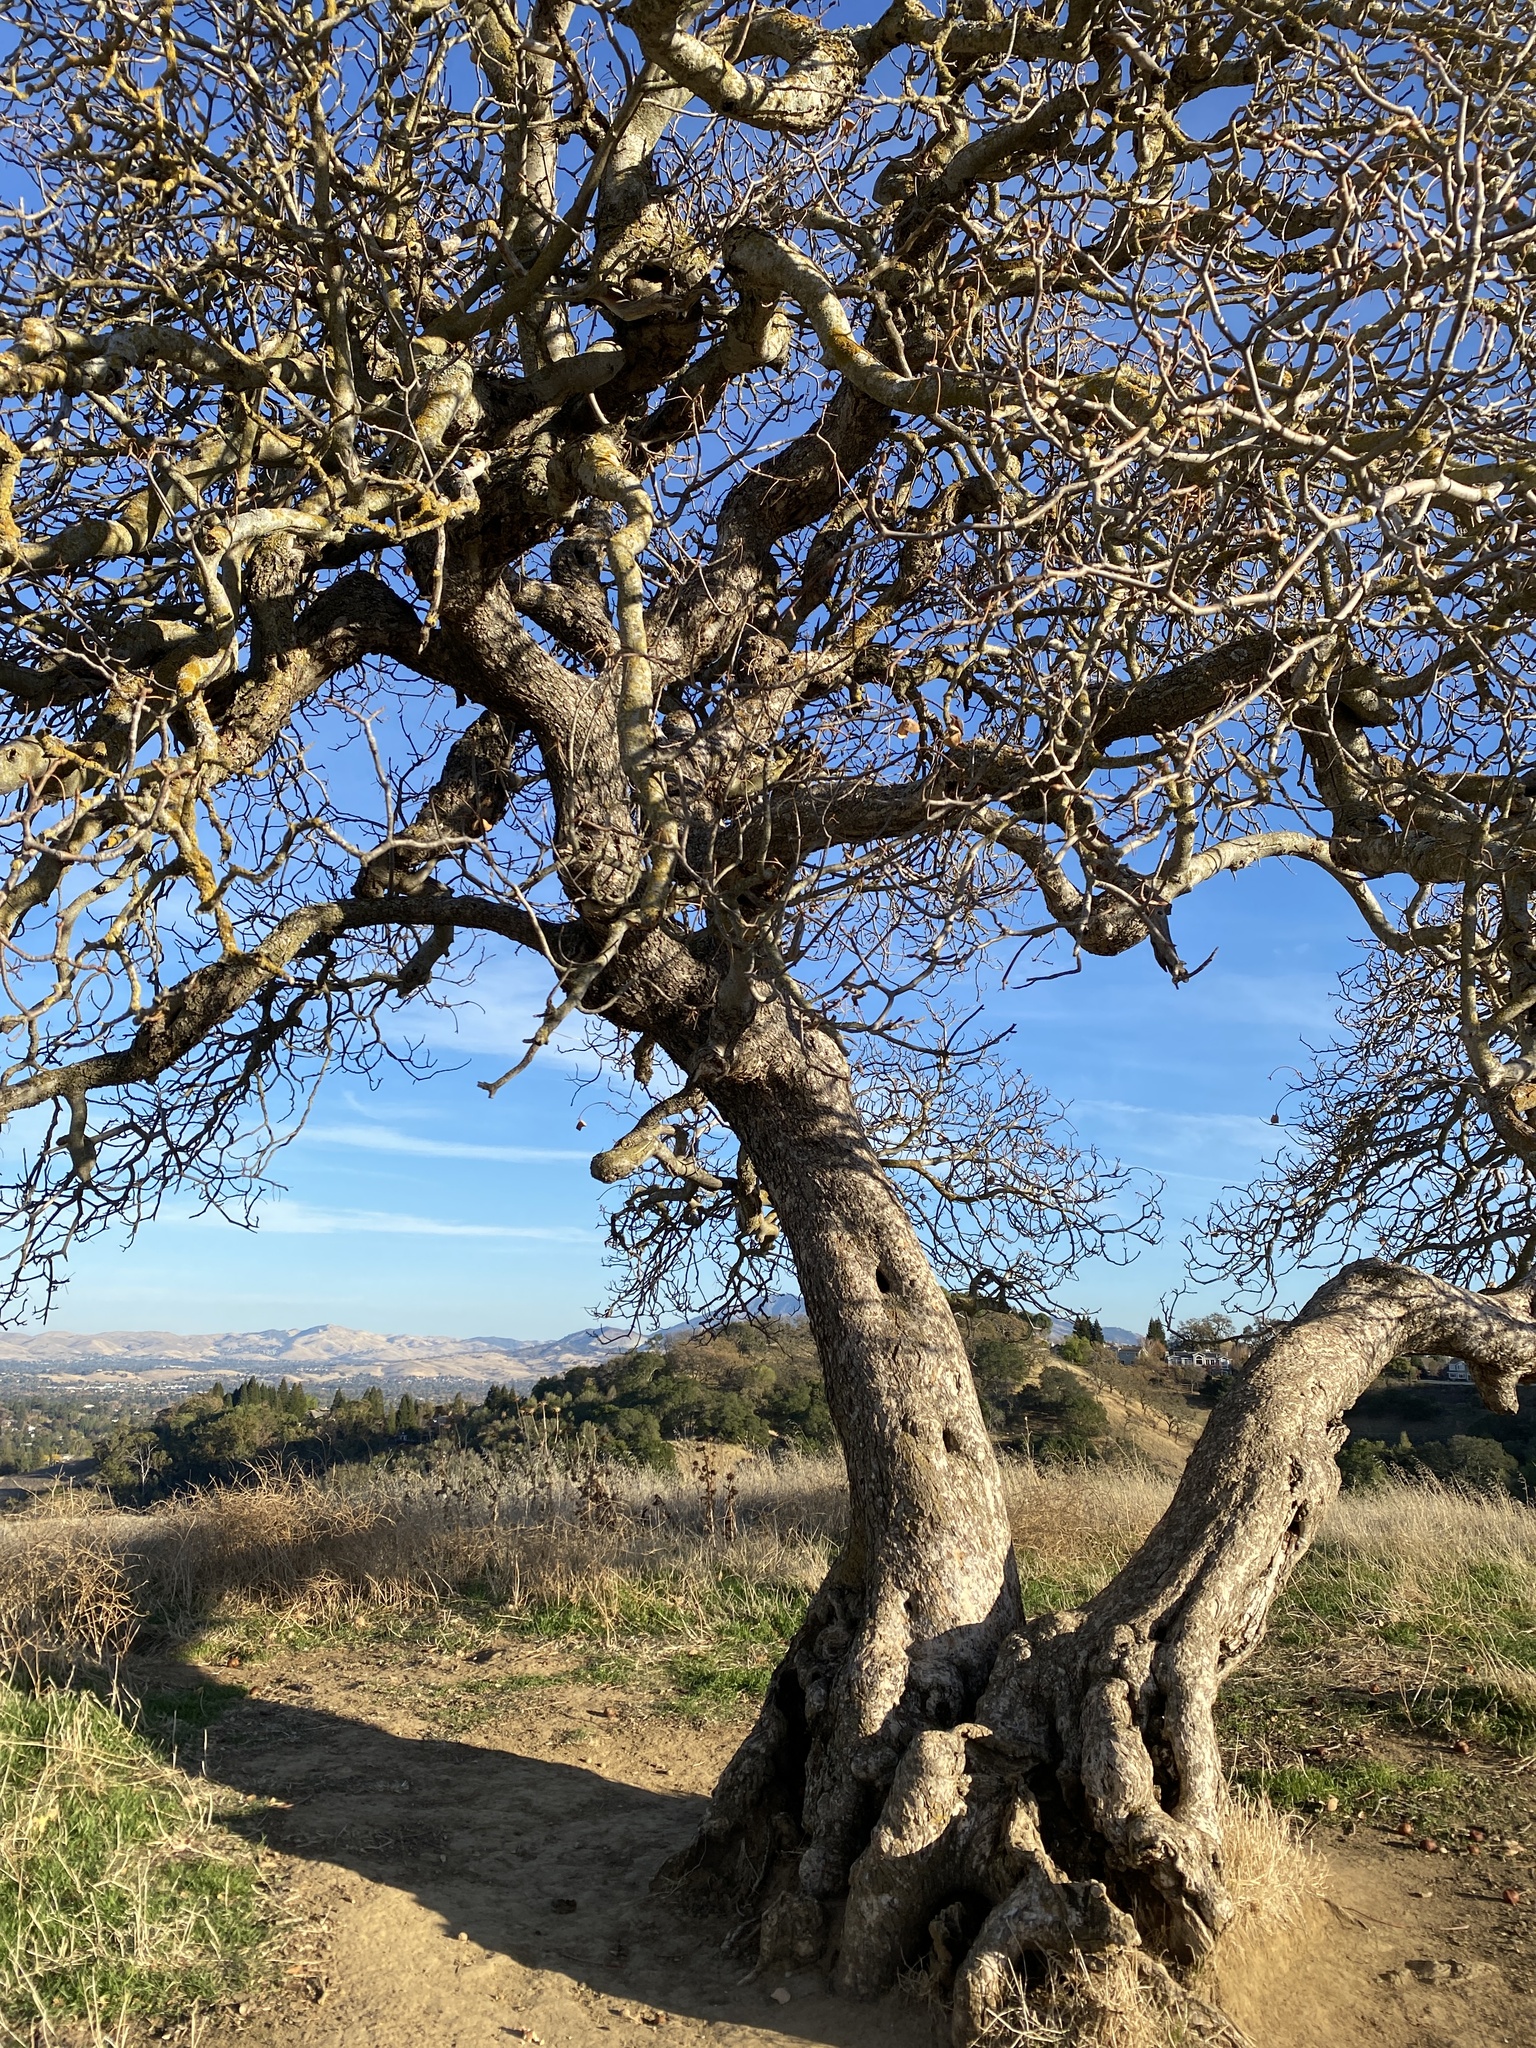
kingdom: Plantae
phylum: Tracheophyta
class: Magnoliopsida
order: Sapindales
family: Sapindaceae
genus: Aesculus
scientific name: Aesculus californica
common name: California buckeye
